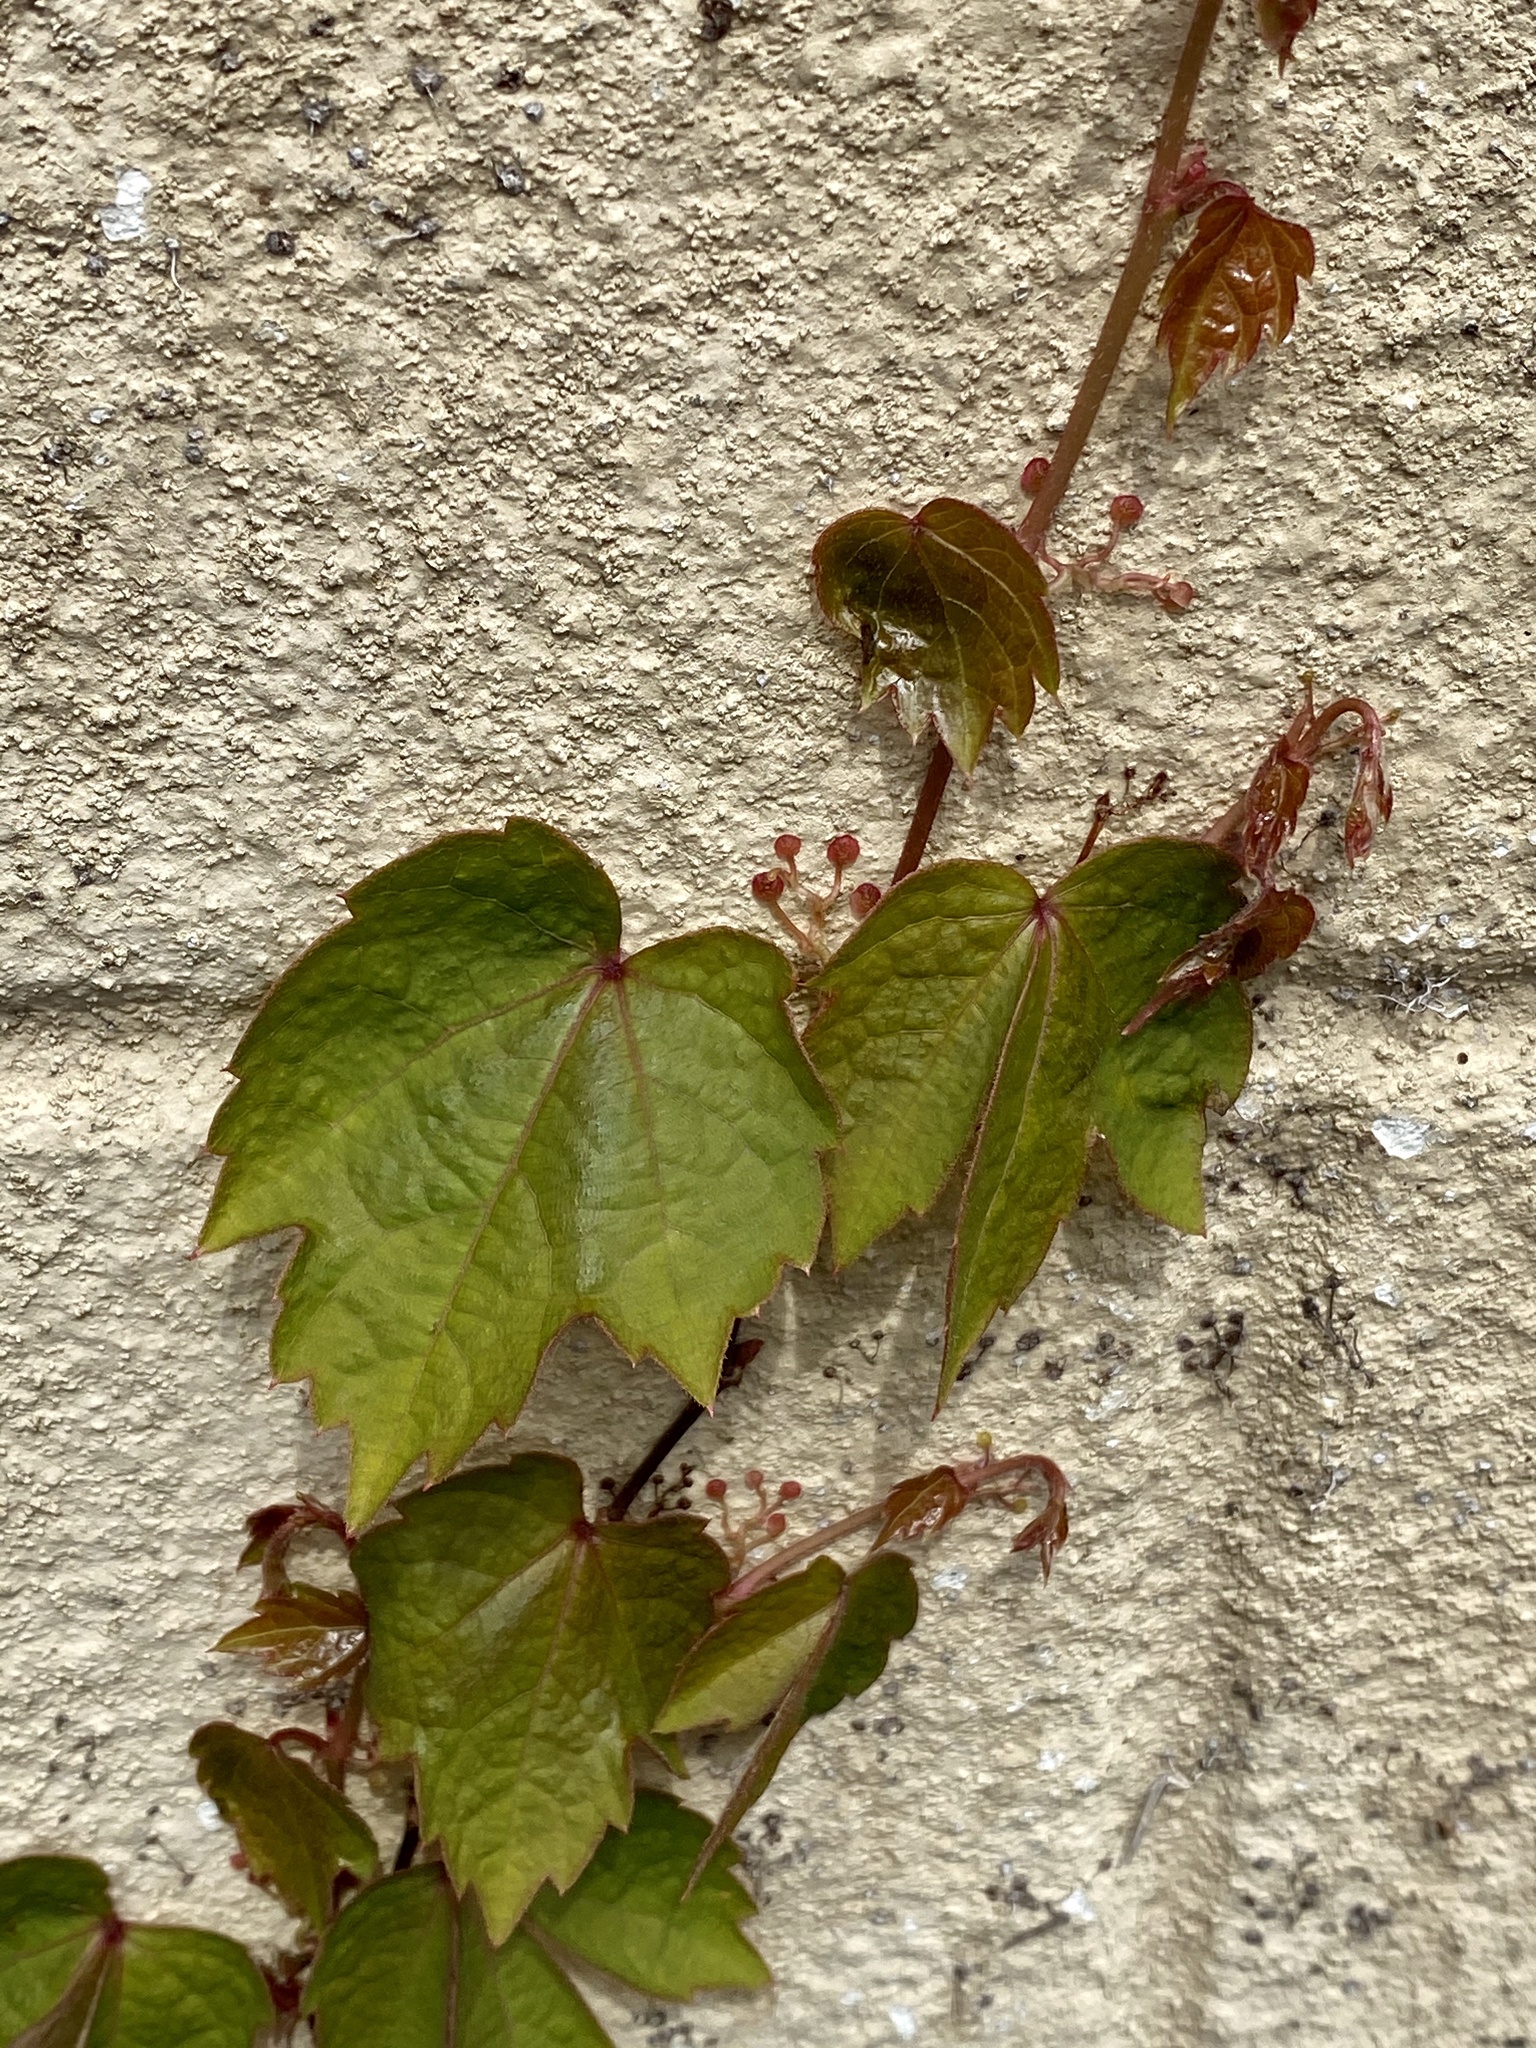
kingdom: Plantae
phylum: Tracheophyta
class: Magnoliopsida
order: Vitales
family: Vitaceae
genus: Parthenocissus
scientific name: Parthenocissus tricuspidata
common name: Boston ivy
